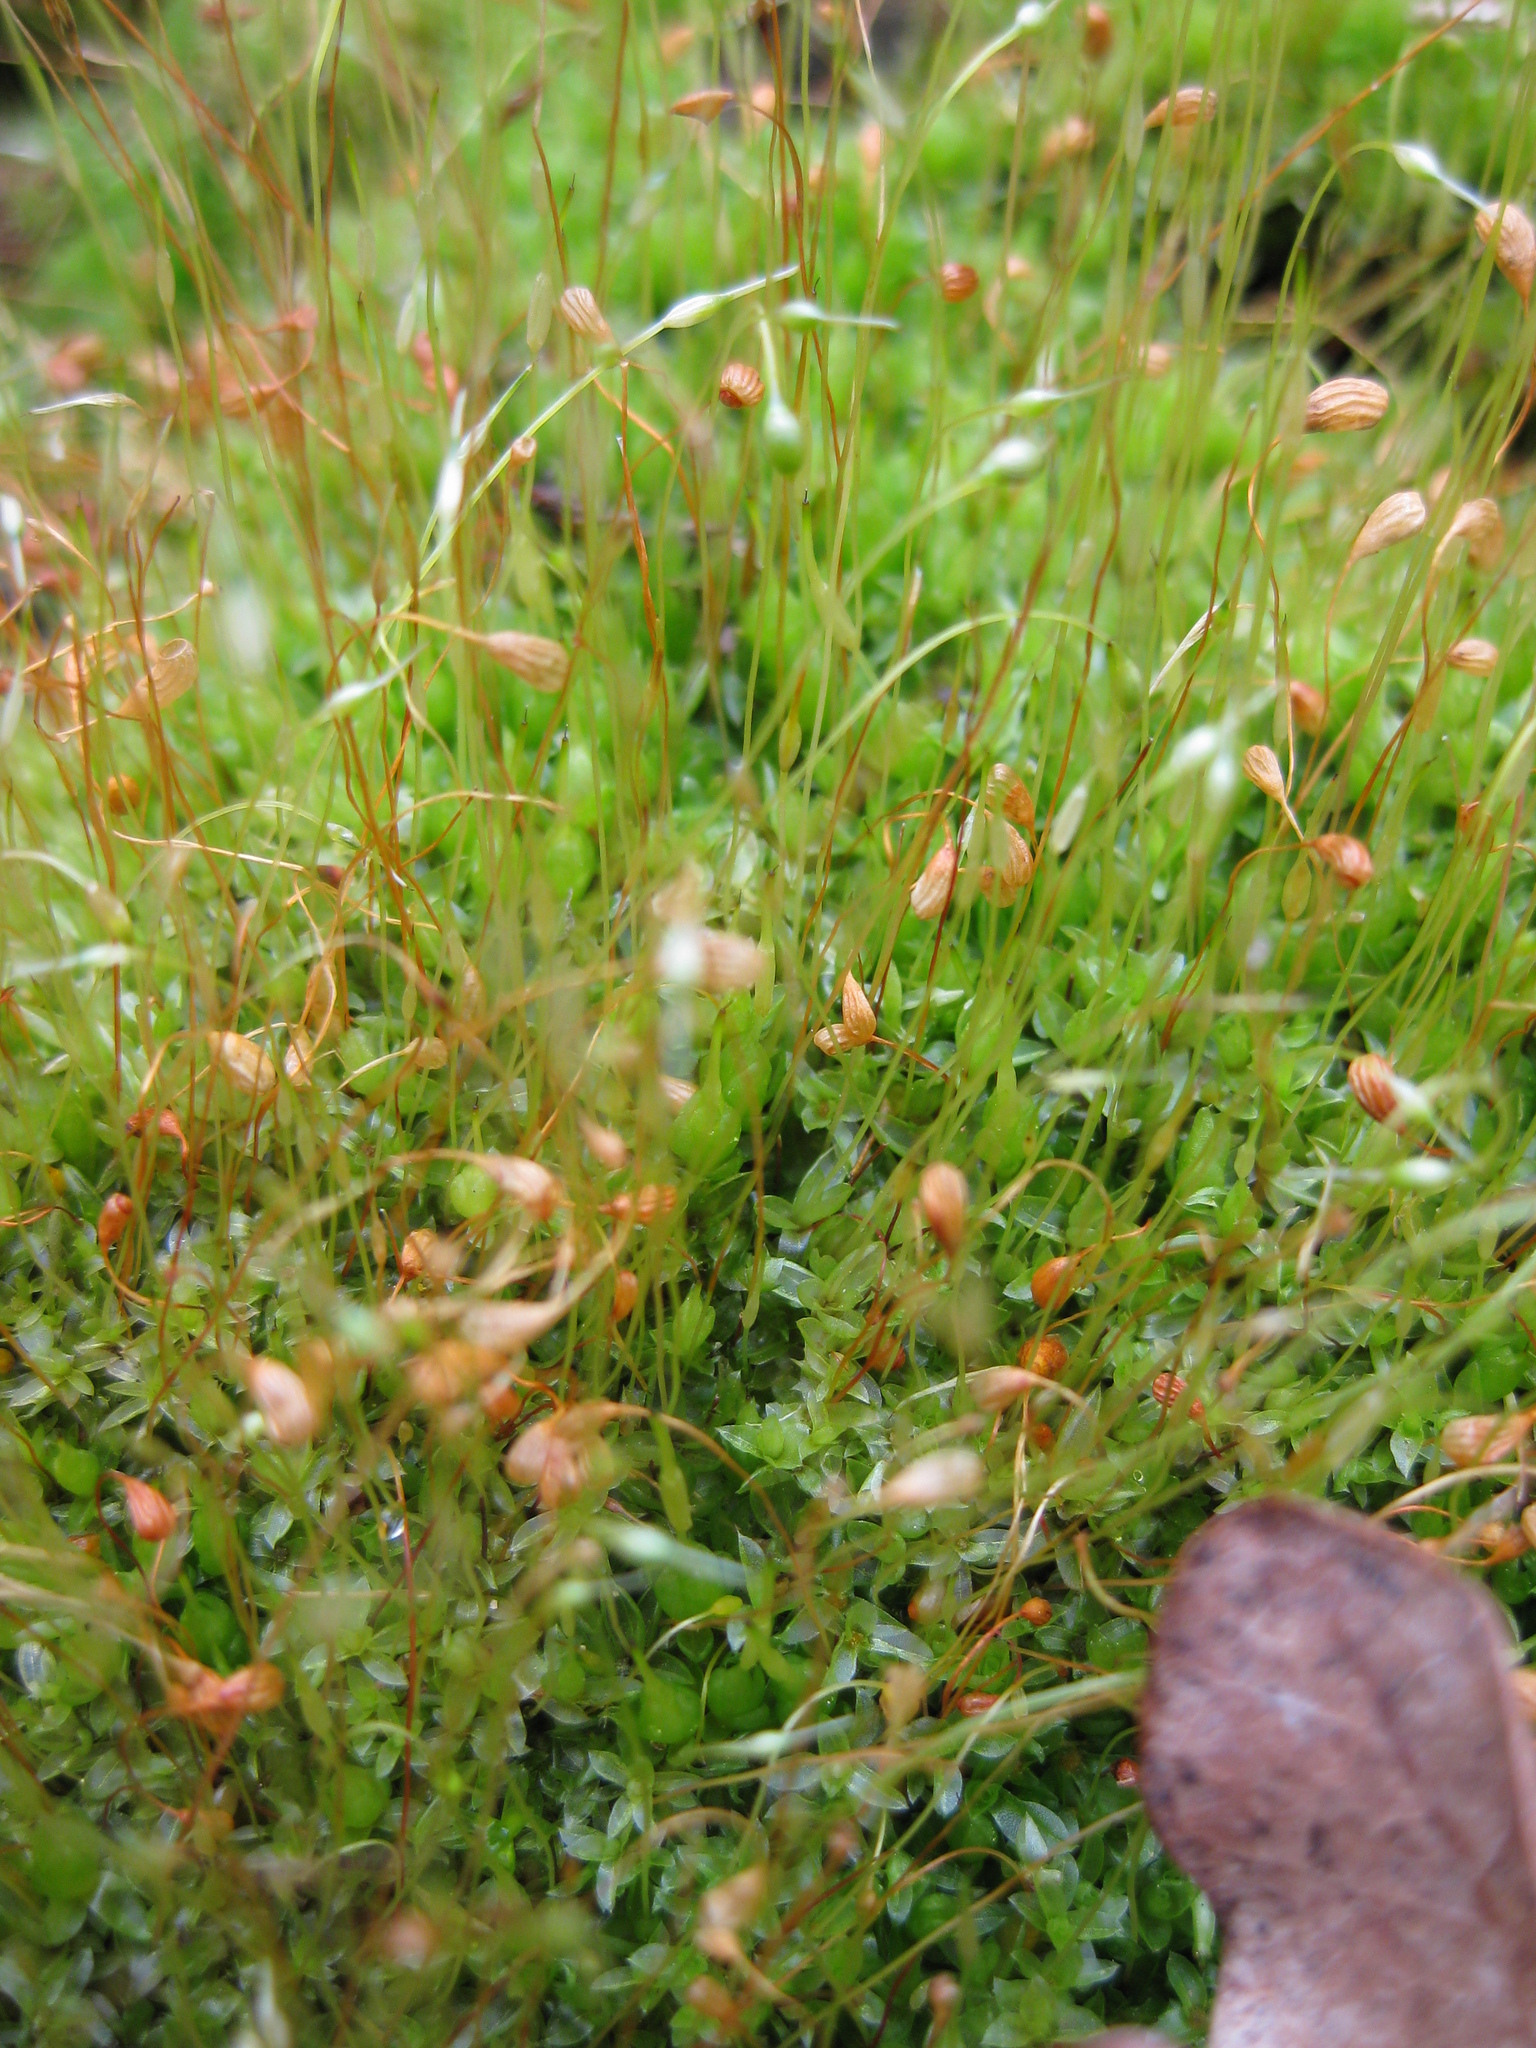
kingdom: Plantae
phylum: Bryophyta
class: Bryopsida
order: Funariales
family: Funariaceae
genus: Funaria
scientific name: Funaria hygrometrica
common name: Common cord moss
